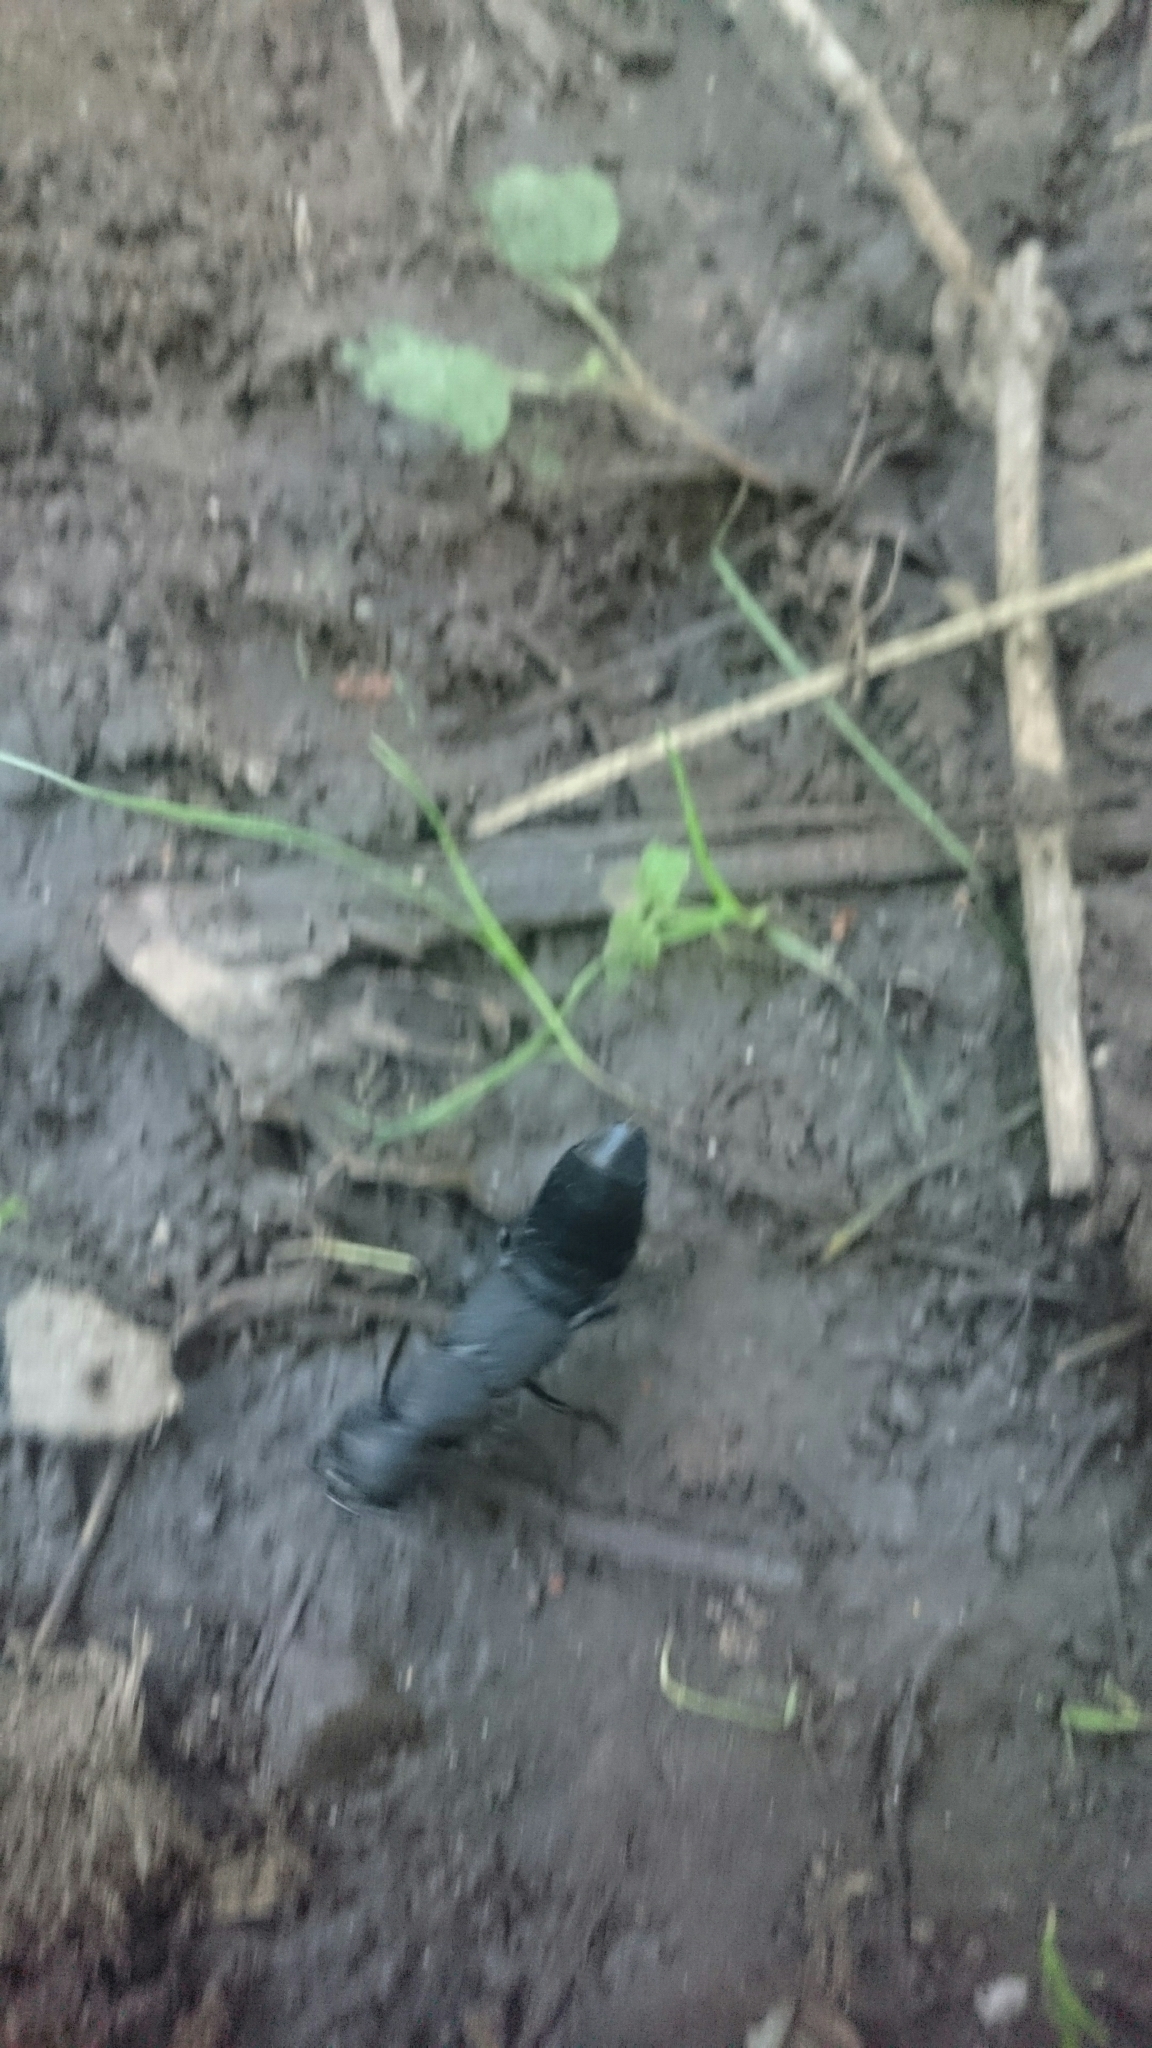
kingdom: Animalia
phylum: Arthropoda
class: Insecta
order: Coleoptera
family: Staphylinidae
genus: Ocypus
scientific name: Ocypus olens
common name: Devil's coach-horse
